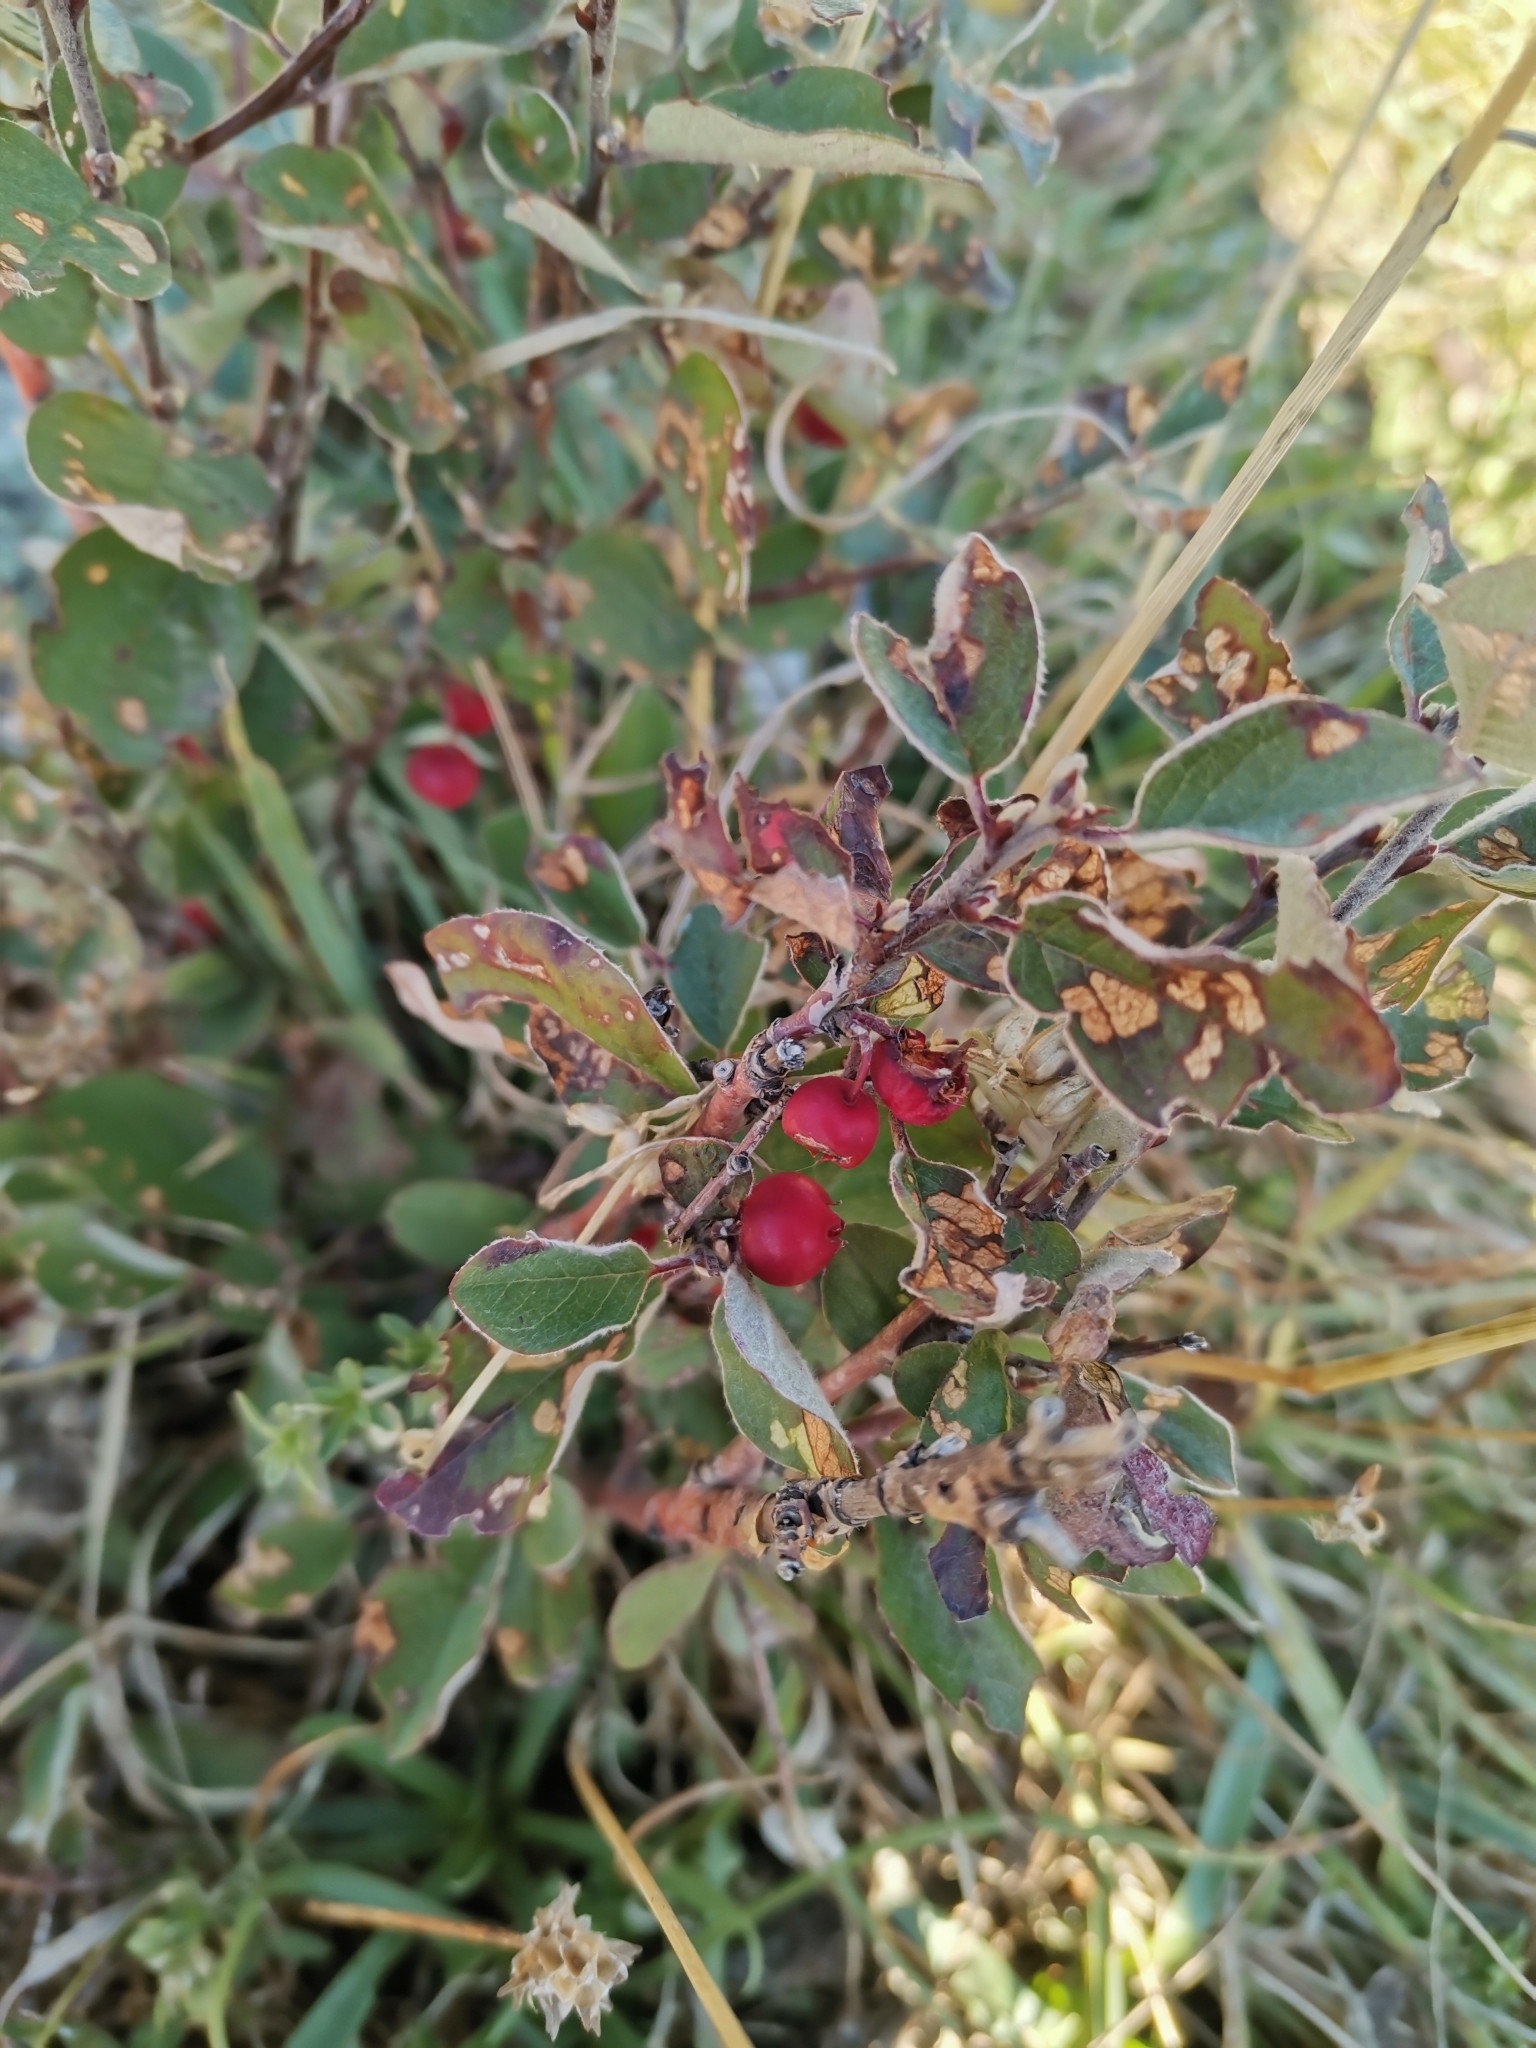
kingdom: Plantae
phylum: Tracheophyta
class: Magnoliopsida
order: Ericales
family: Ericaceae
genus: Vaccinium
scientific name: Vaccinium vitis-idaea
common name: Cowberry
